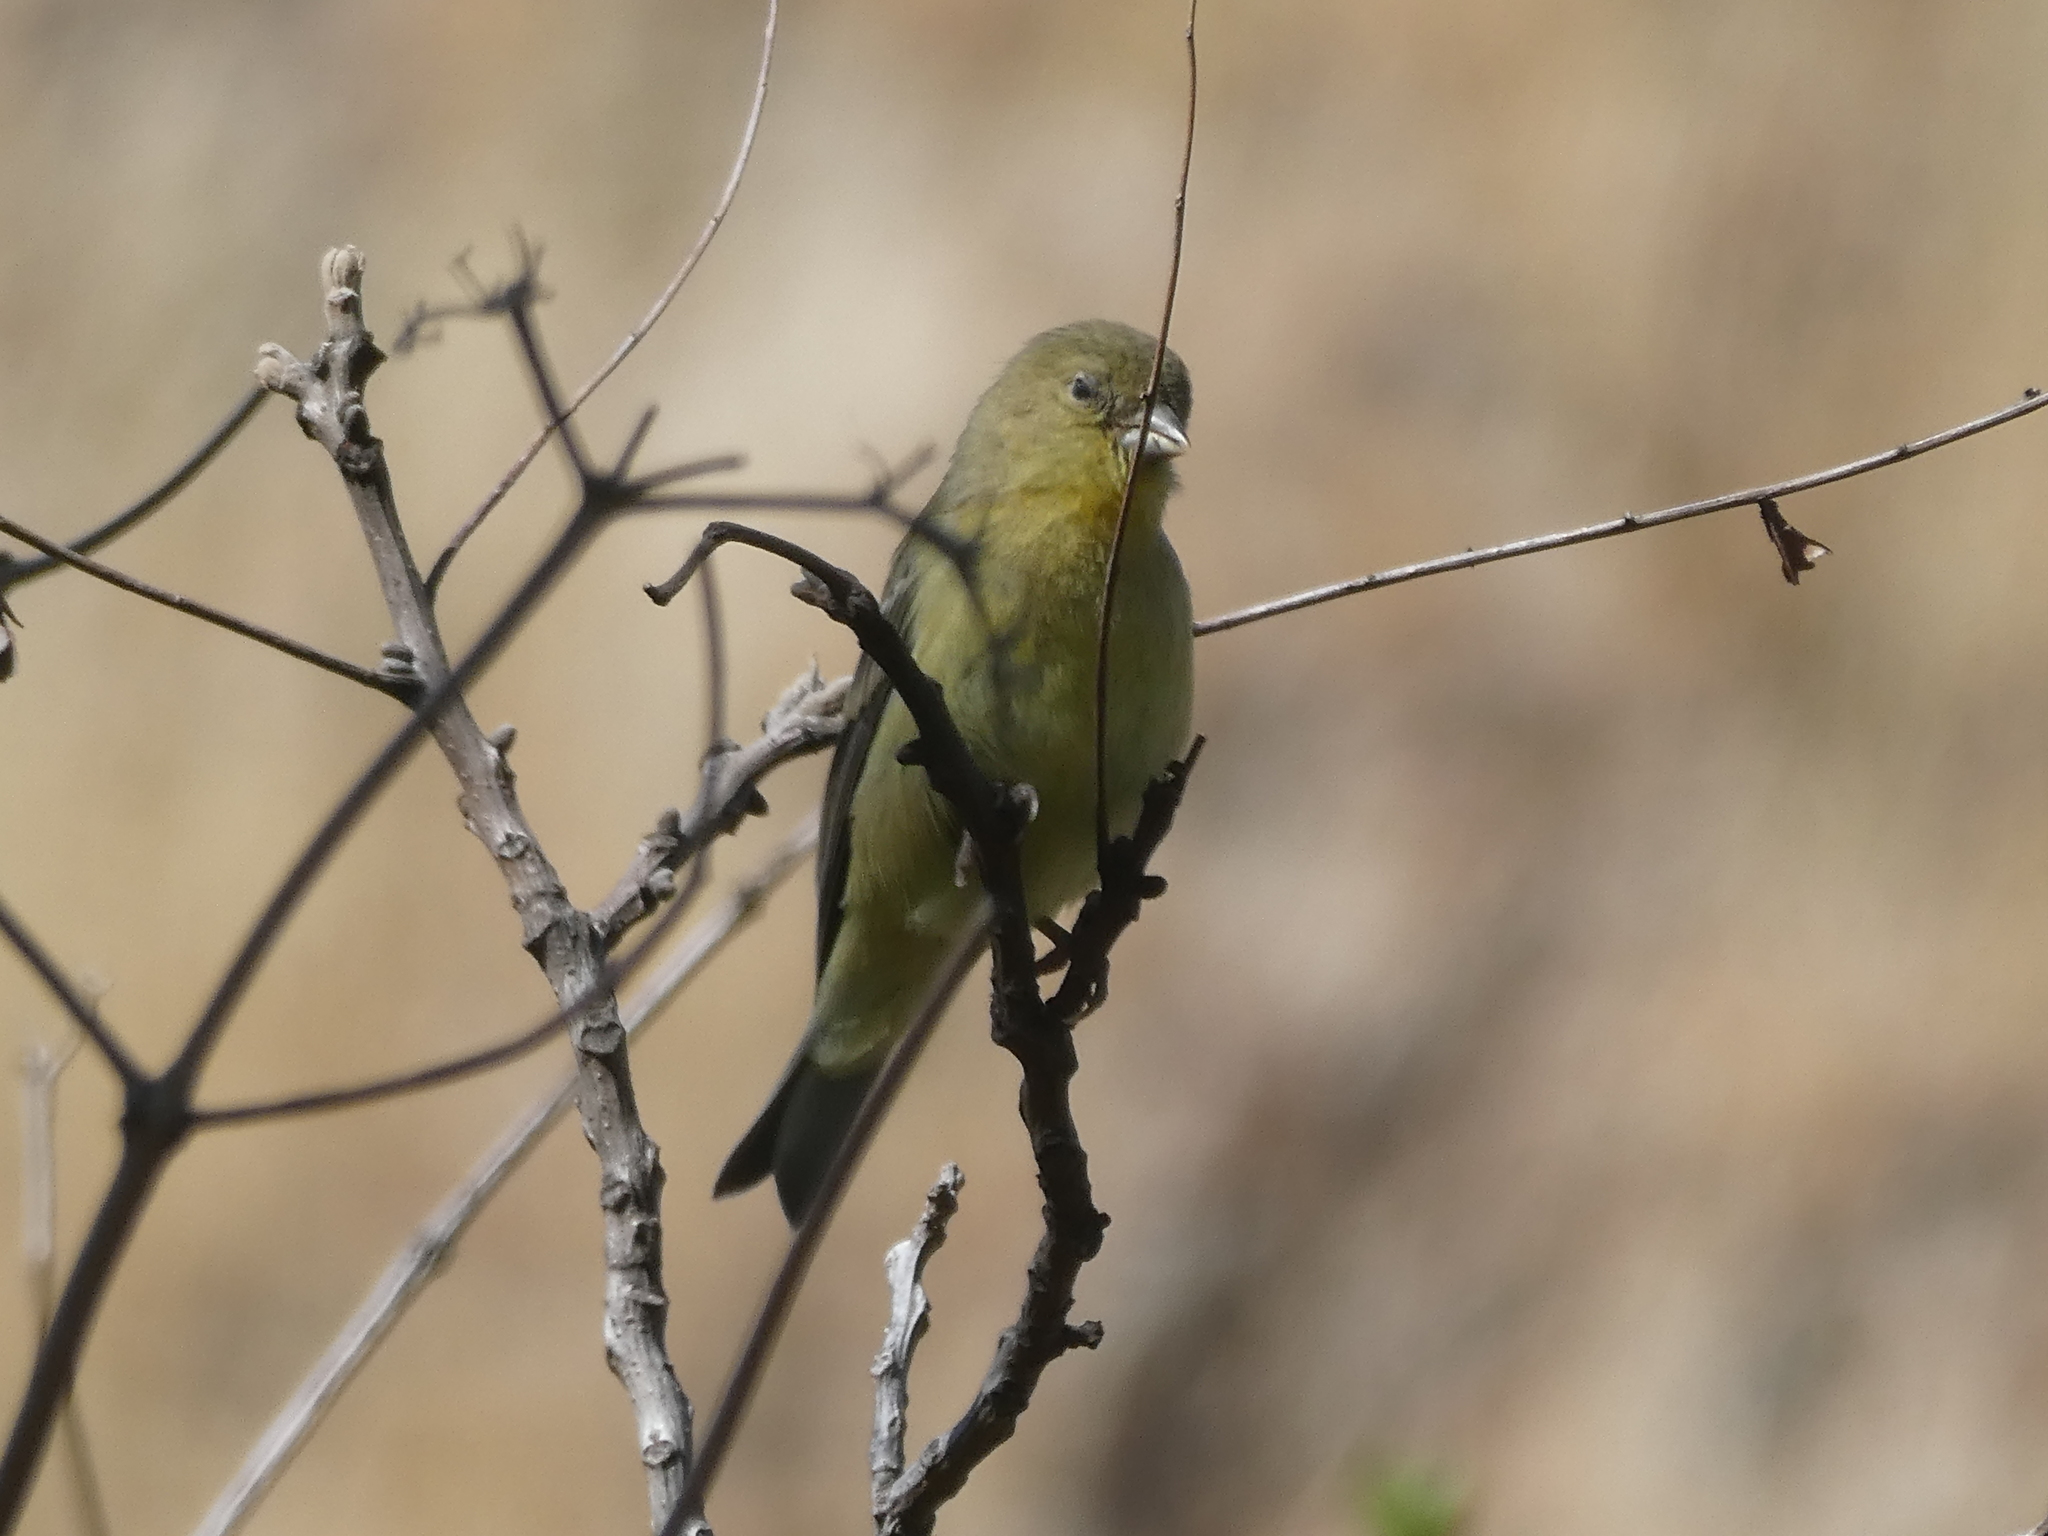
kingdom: Animalia
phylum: Chordata
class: Aves
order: Passeriformes
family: Fringillidae
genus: Spinus
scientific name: Spinus psaltria
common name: Lesser goldfinch
